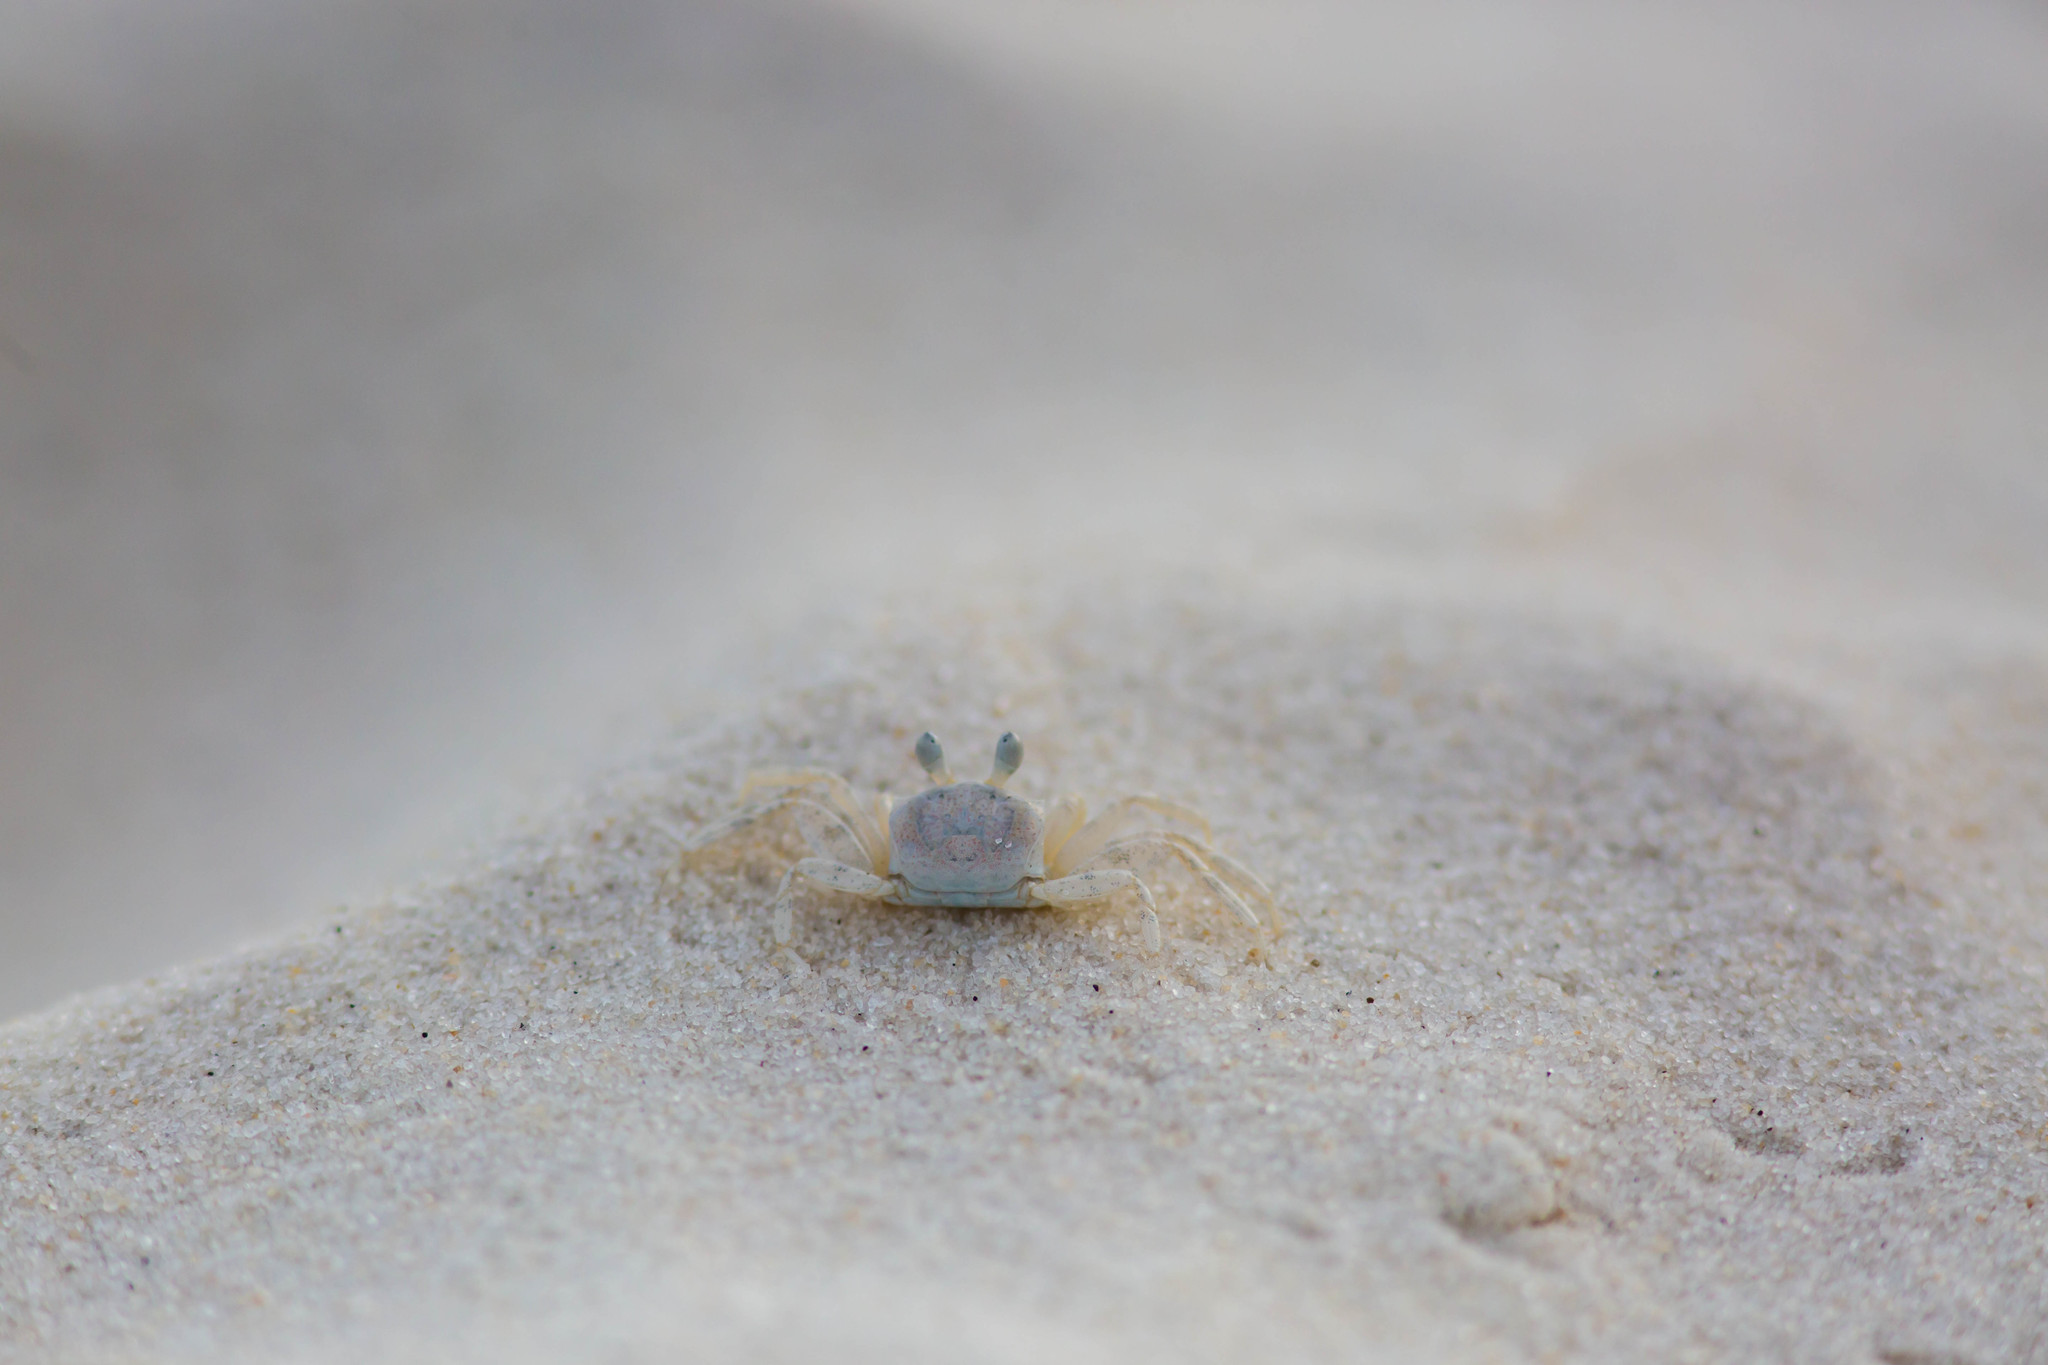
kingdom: Animalia
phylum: Arthropoda
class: Malacostraca
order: Decapoda
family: Ocypodidae
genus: Ocypode
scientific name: Ocypode quadrata
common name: Ghost crab
